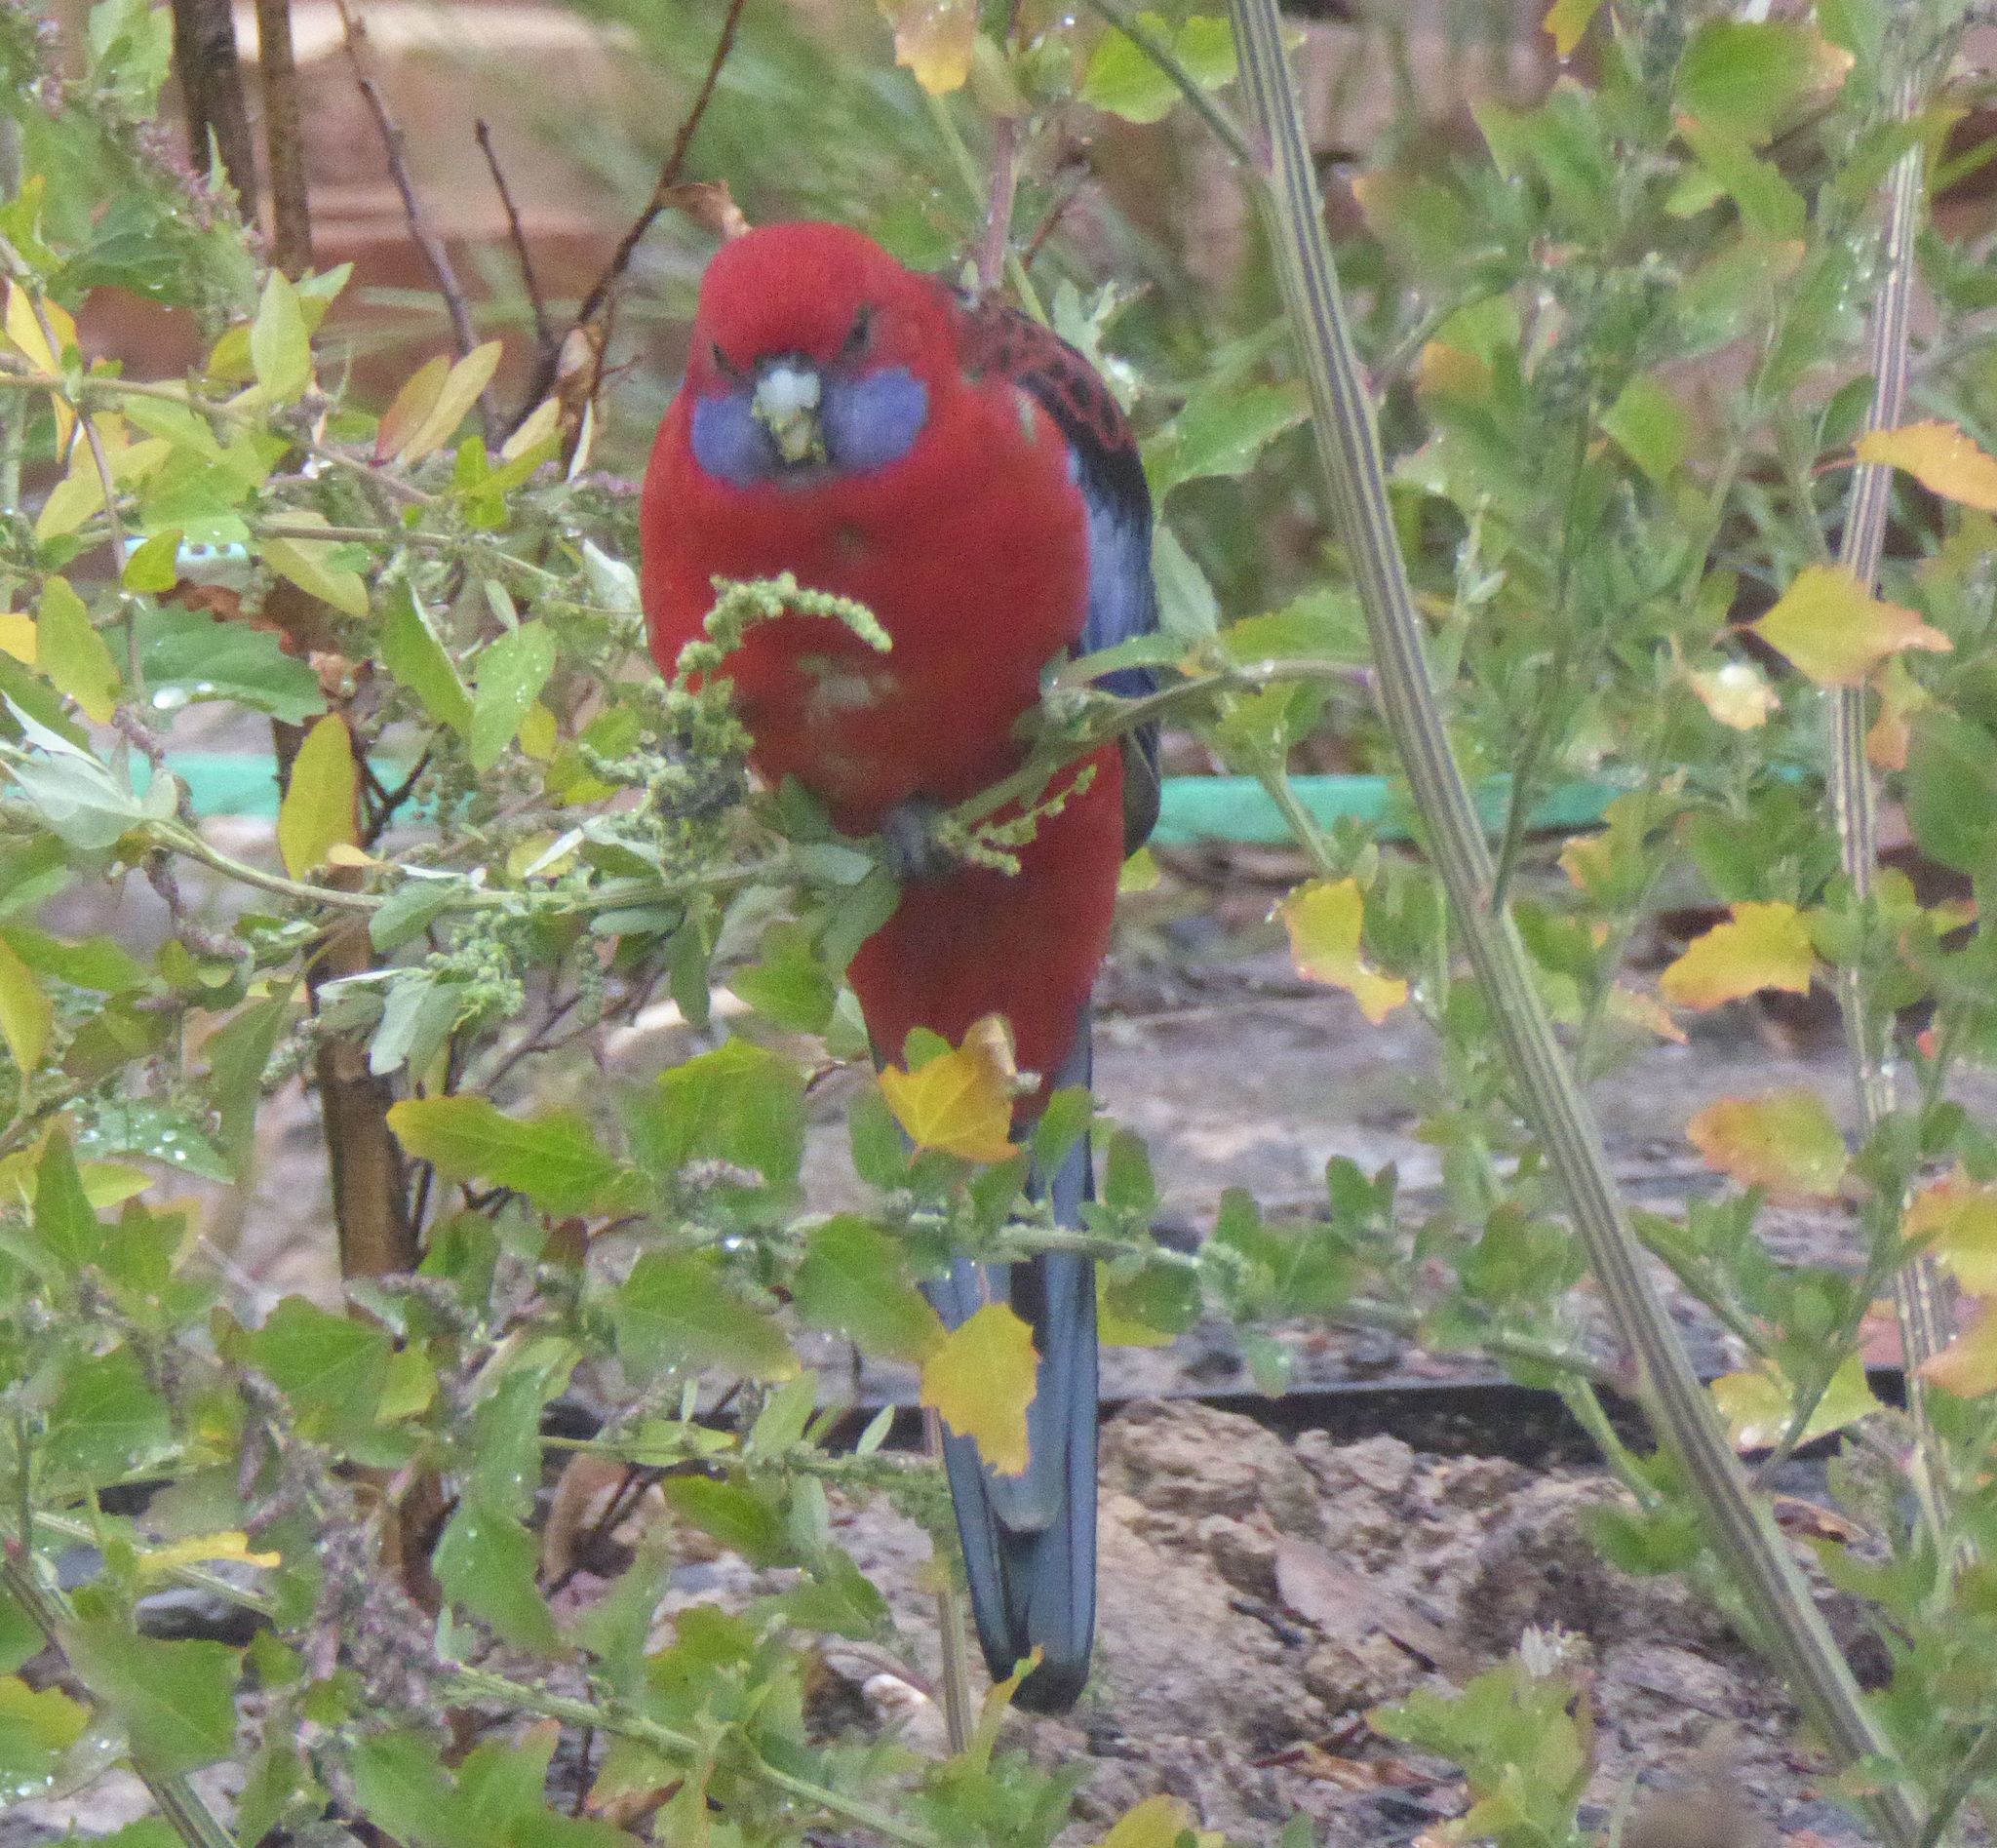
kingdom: Animalia
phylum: Chordata
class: Aves
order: Psittaciformes
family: Psittacidae
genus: Platycercus
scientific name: Platycercus elegans
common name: Crimson rosella
